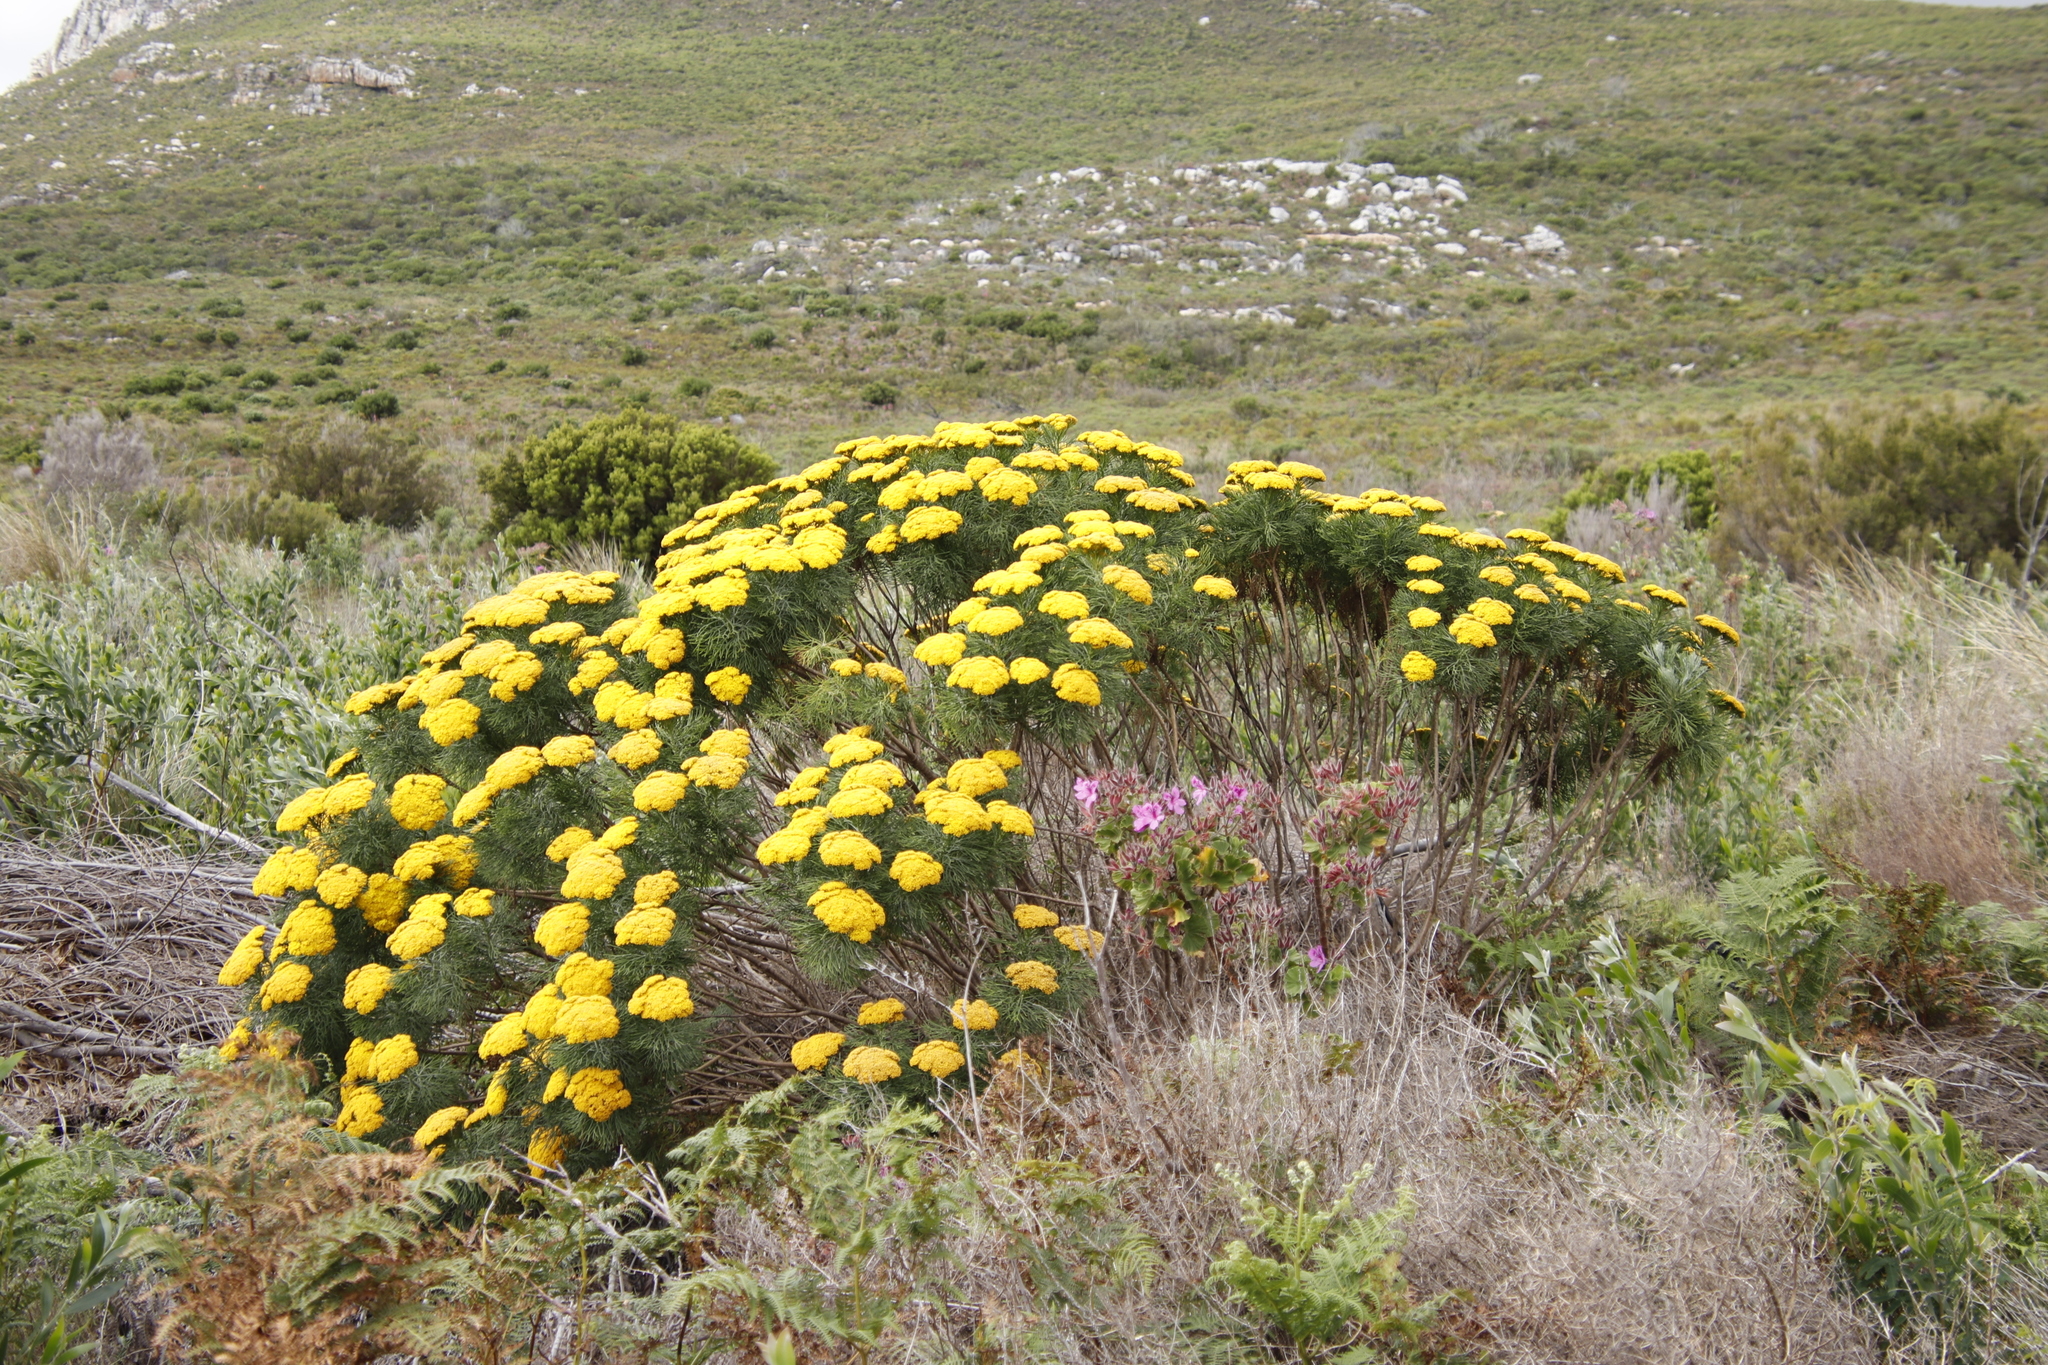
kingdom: Plantae
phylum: Tracheophyta
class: Magnoliopsida
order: Asterales
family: Asteraceae
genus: Hymenolepis
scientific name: Hymenolepis crithmifolia
